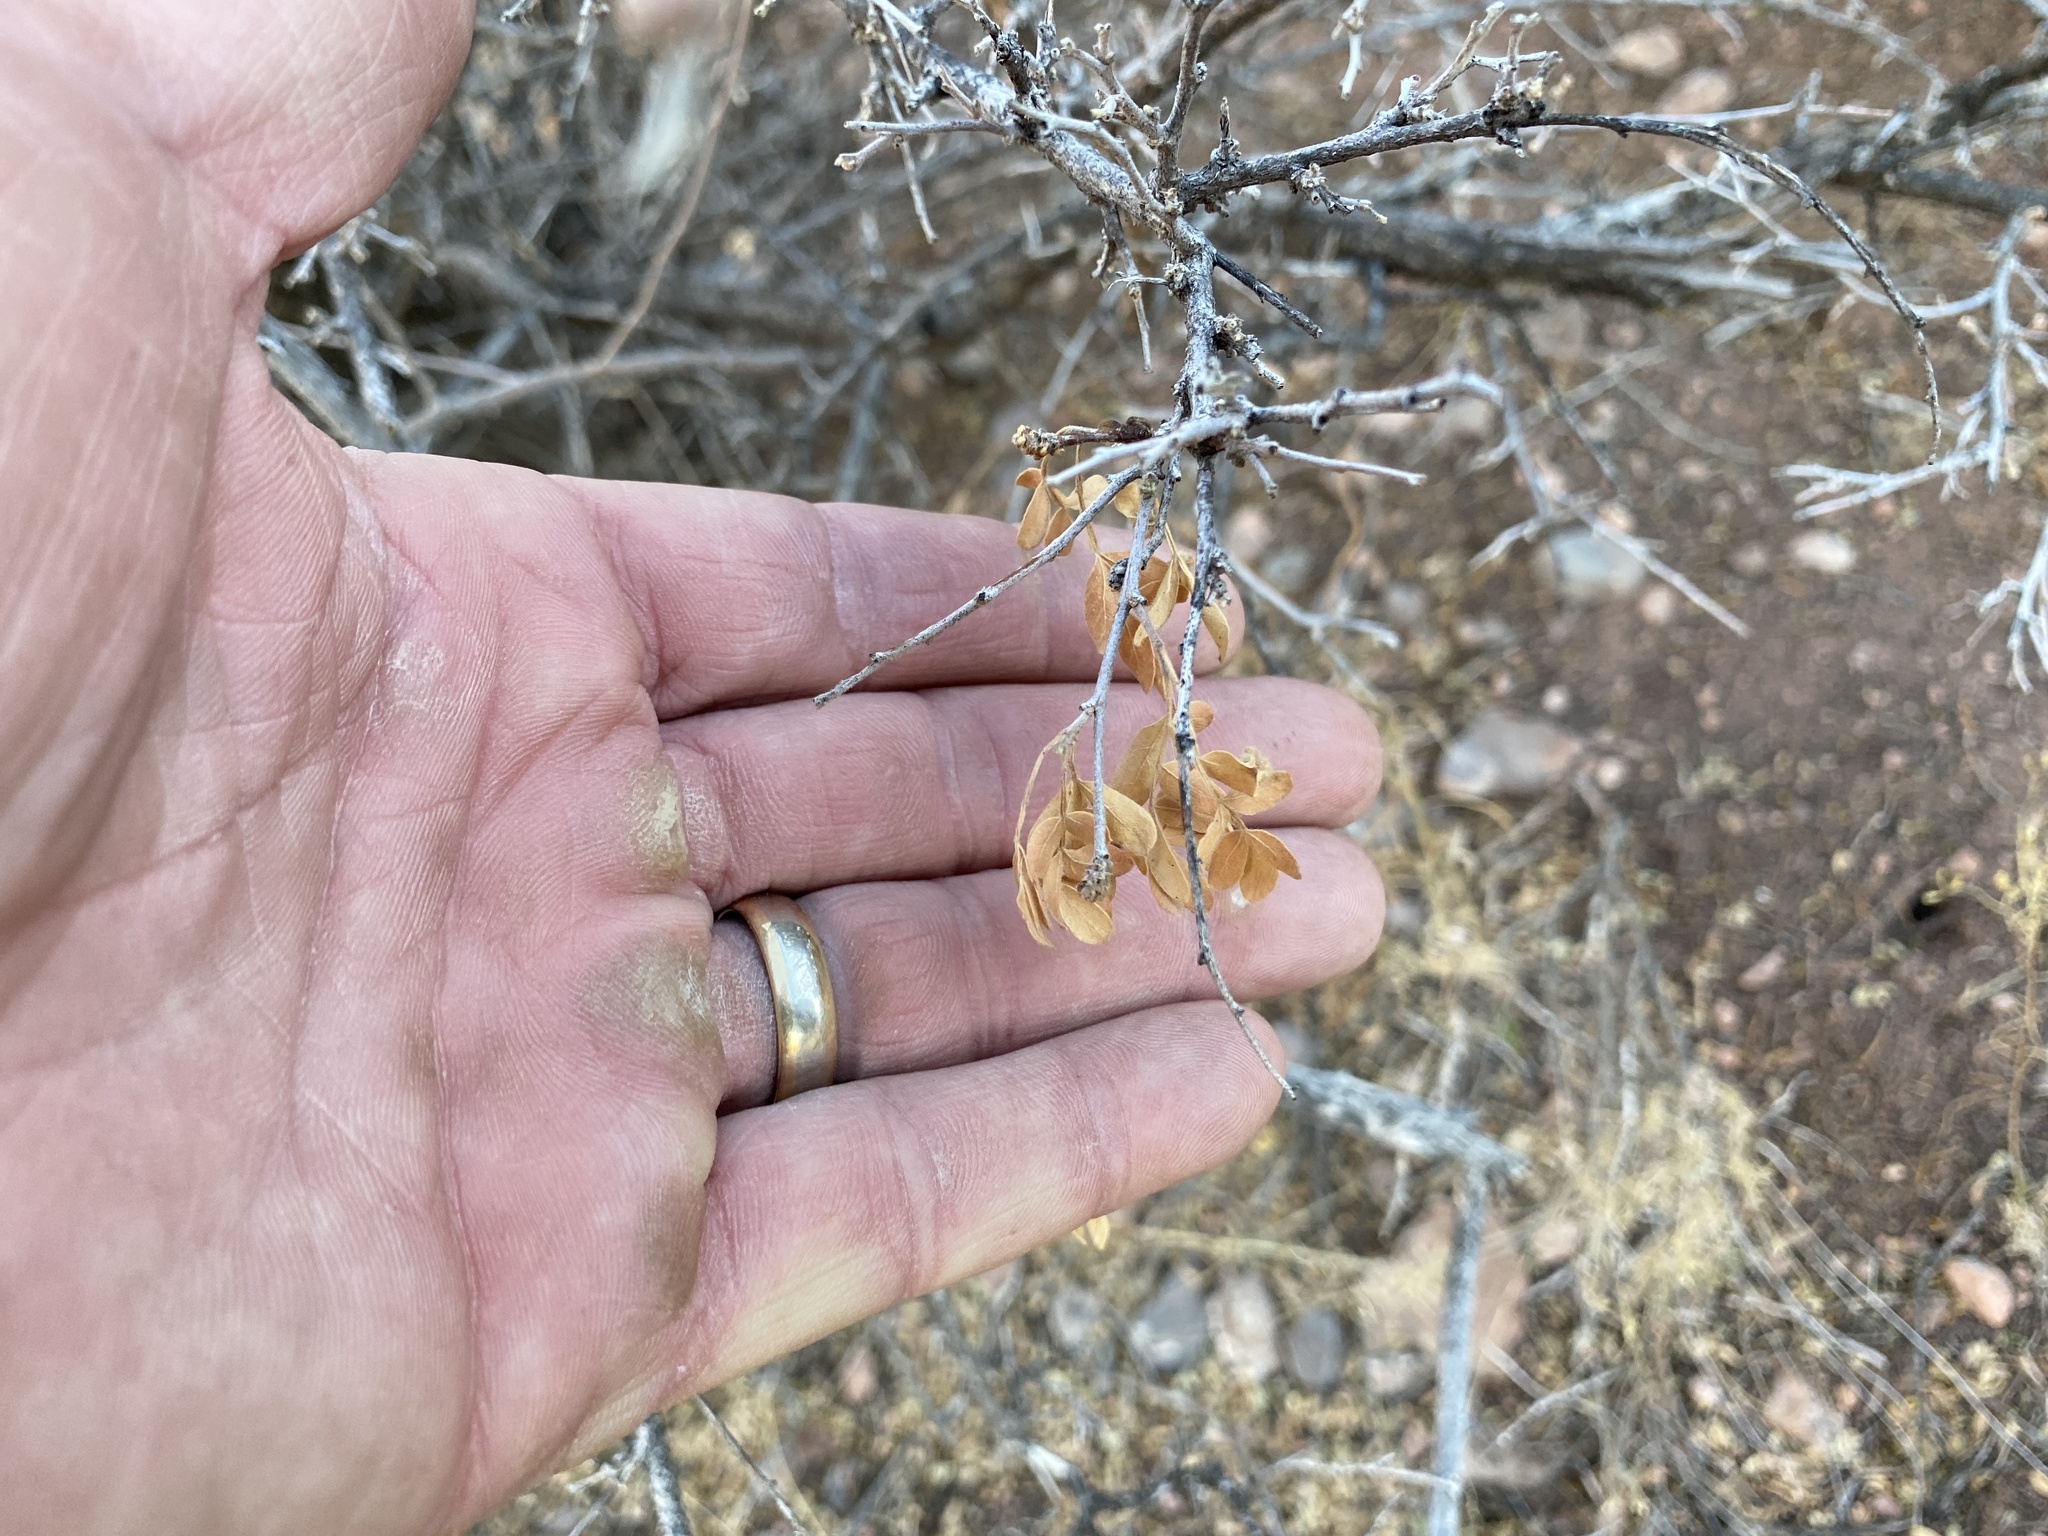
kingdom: Plantae
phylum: Tracheophyta
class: Magnoliopsida
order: Sapindales
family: Anacardiaceae
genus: Rhus
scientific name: Rhus microphylla
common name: Desert sumac
